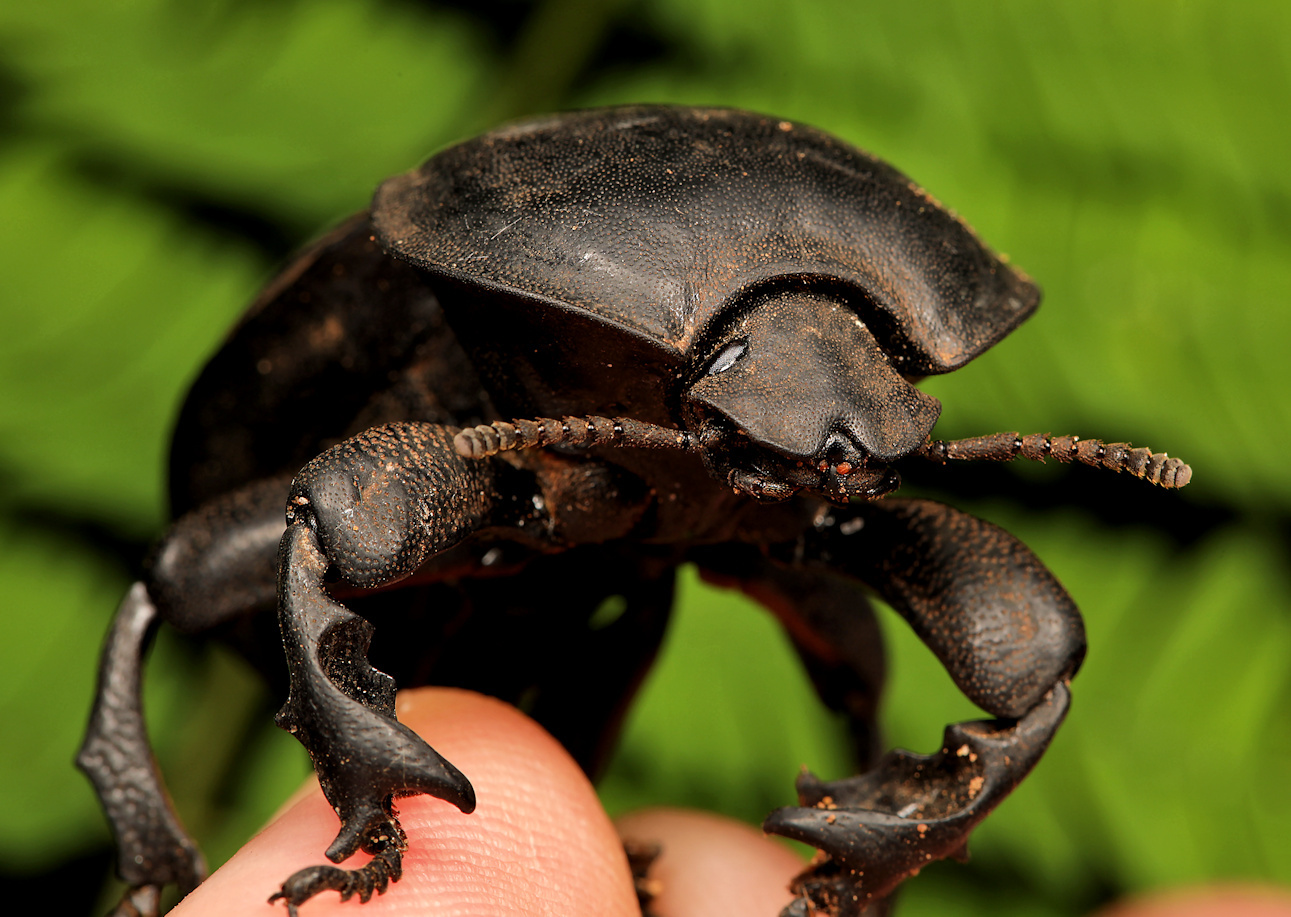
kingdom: Animalia
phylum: Arthropoda
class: Insecta
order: Coleoptera
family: Tenebrionidae
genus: Anomalipus
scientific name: Anomalipus
